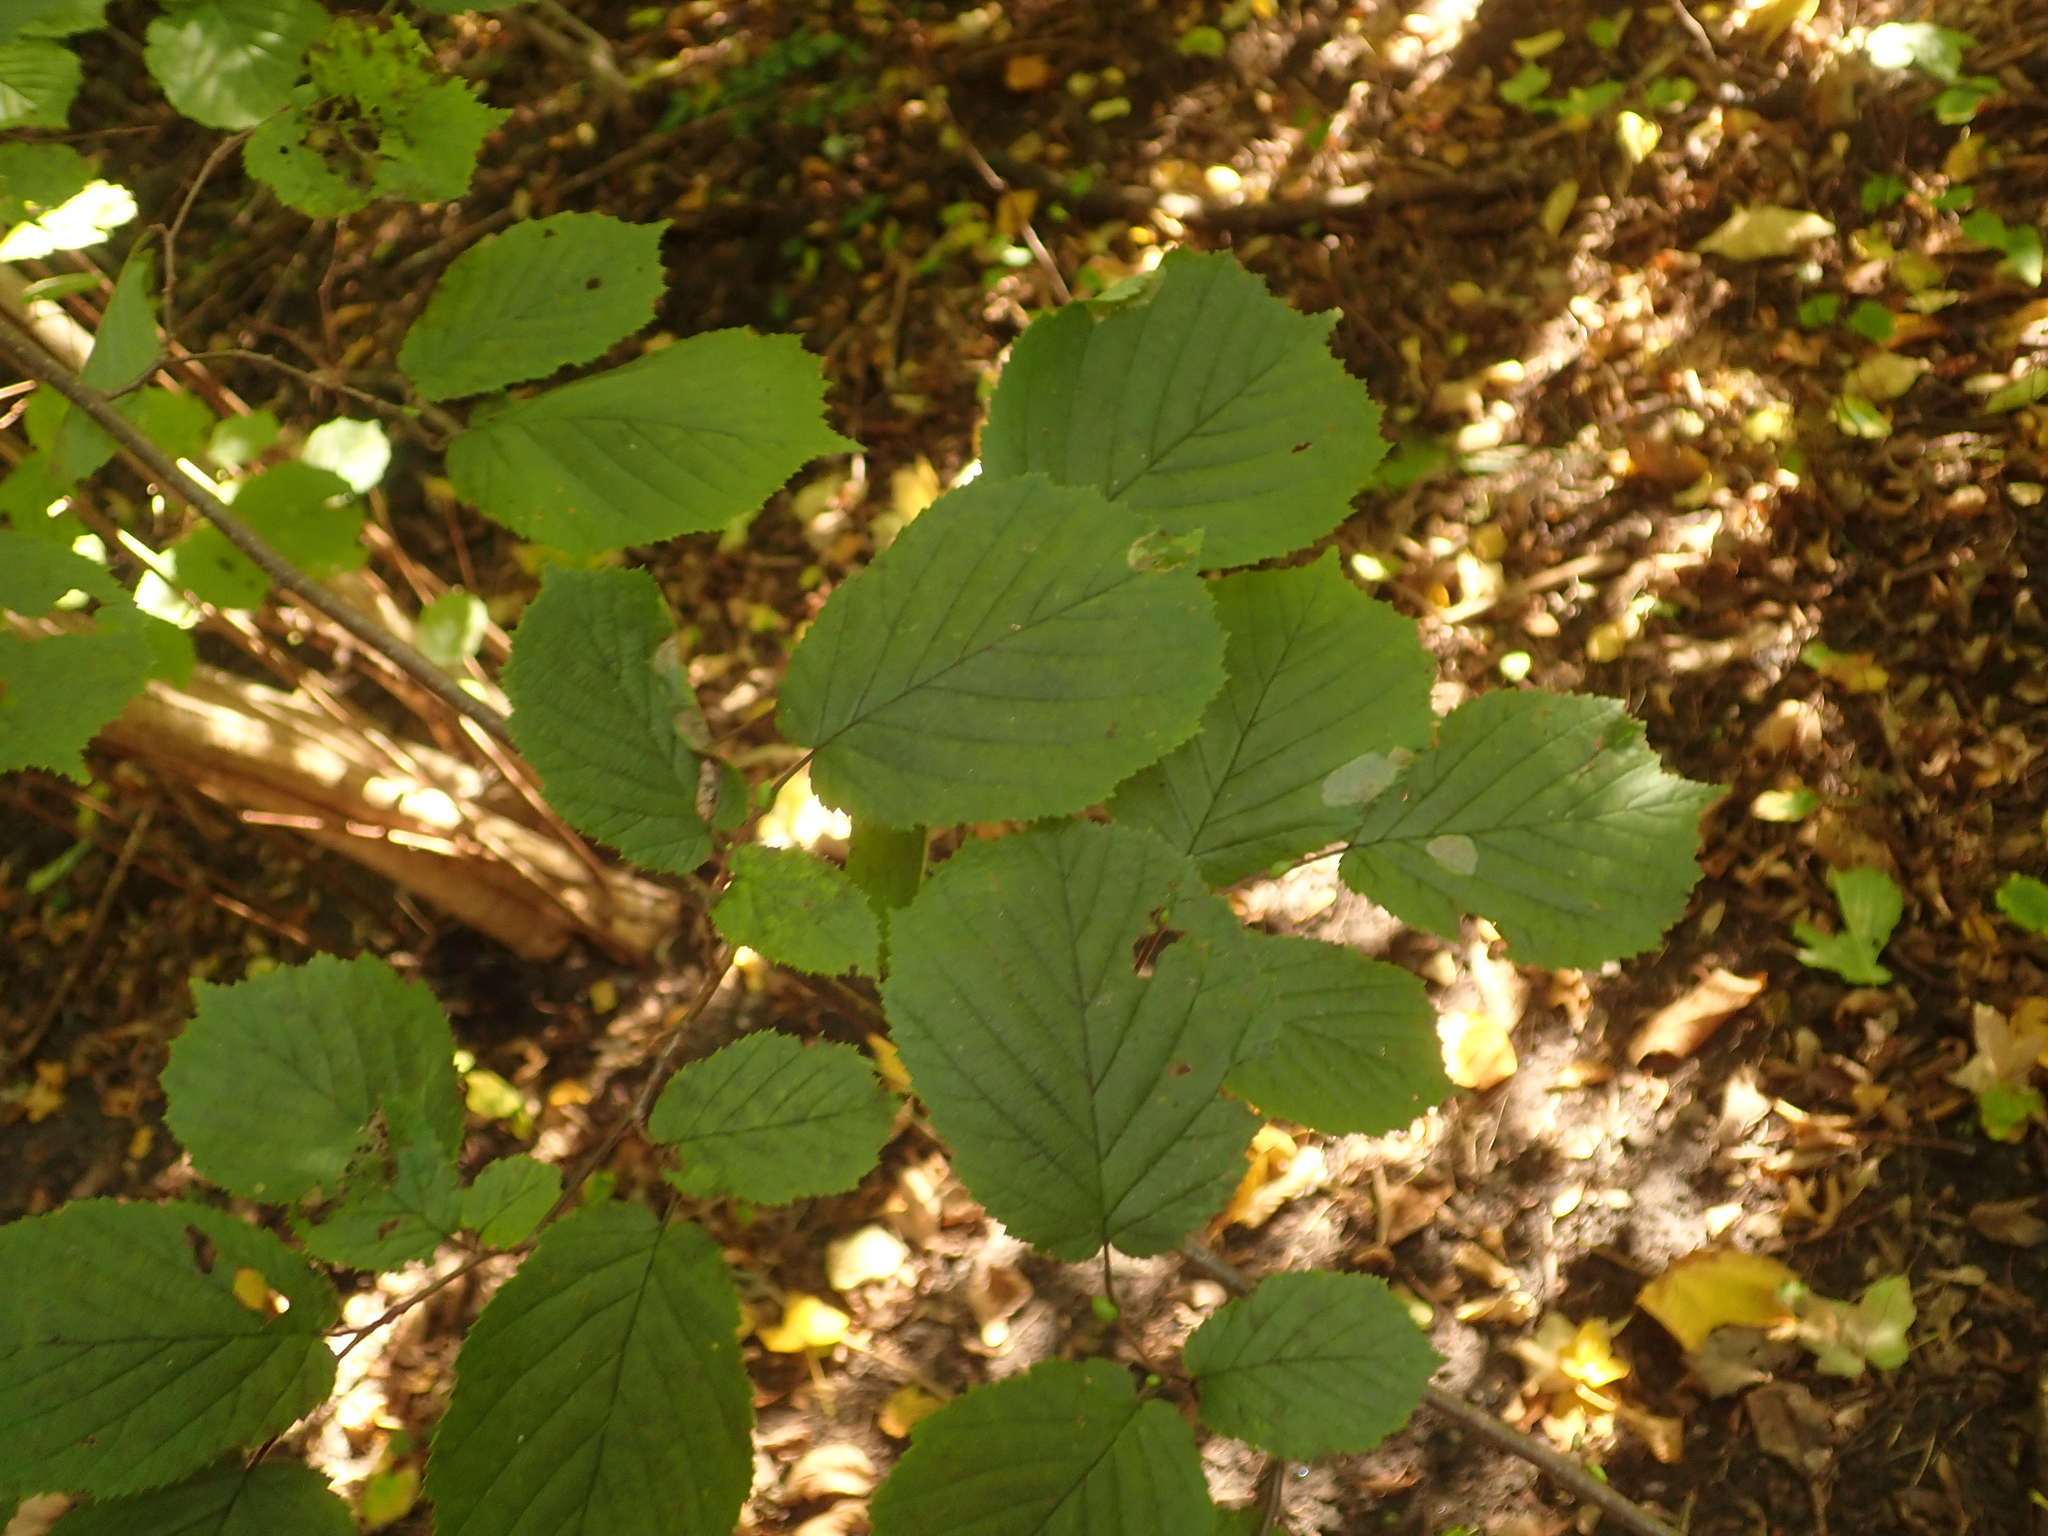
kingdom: Plantae
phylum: Tracheophyta
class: Magnoliopsida
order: Fagales
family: Betulaceae
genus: Corylus
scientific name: Corylus avellana
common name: European hazel
